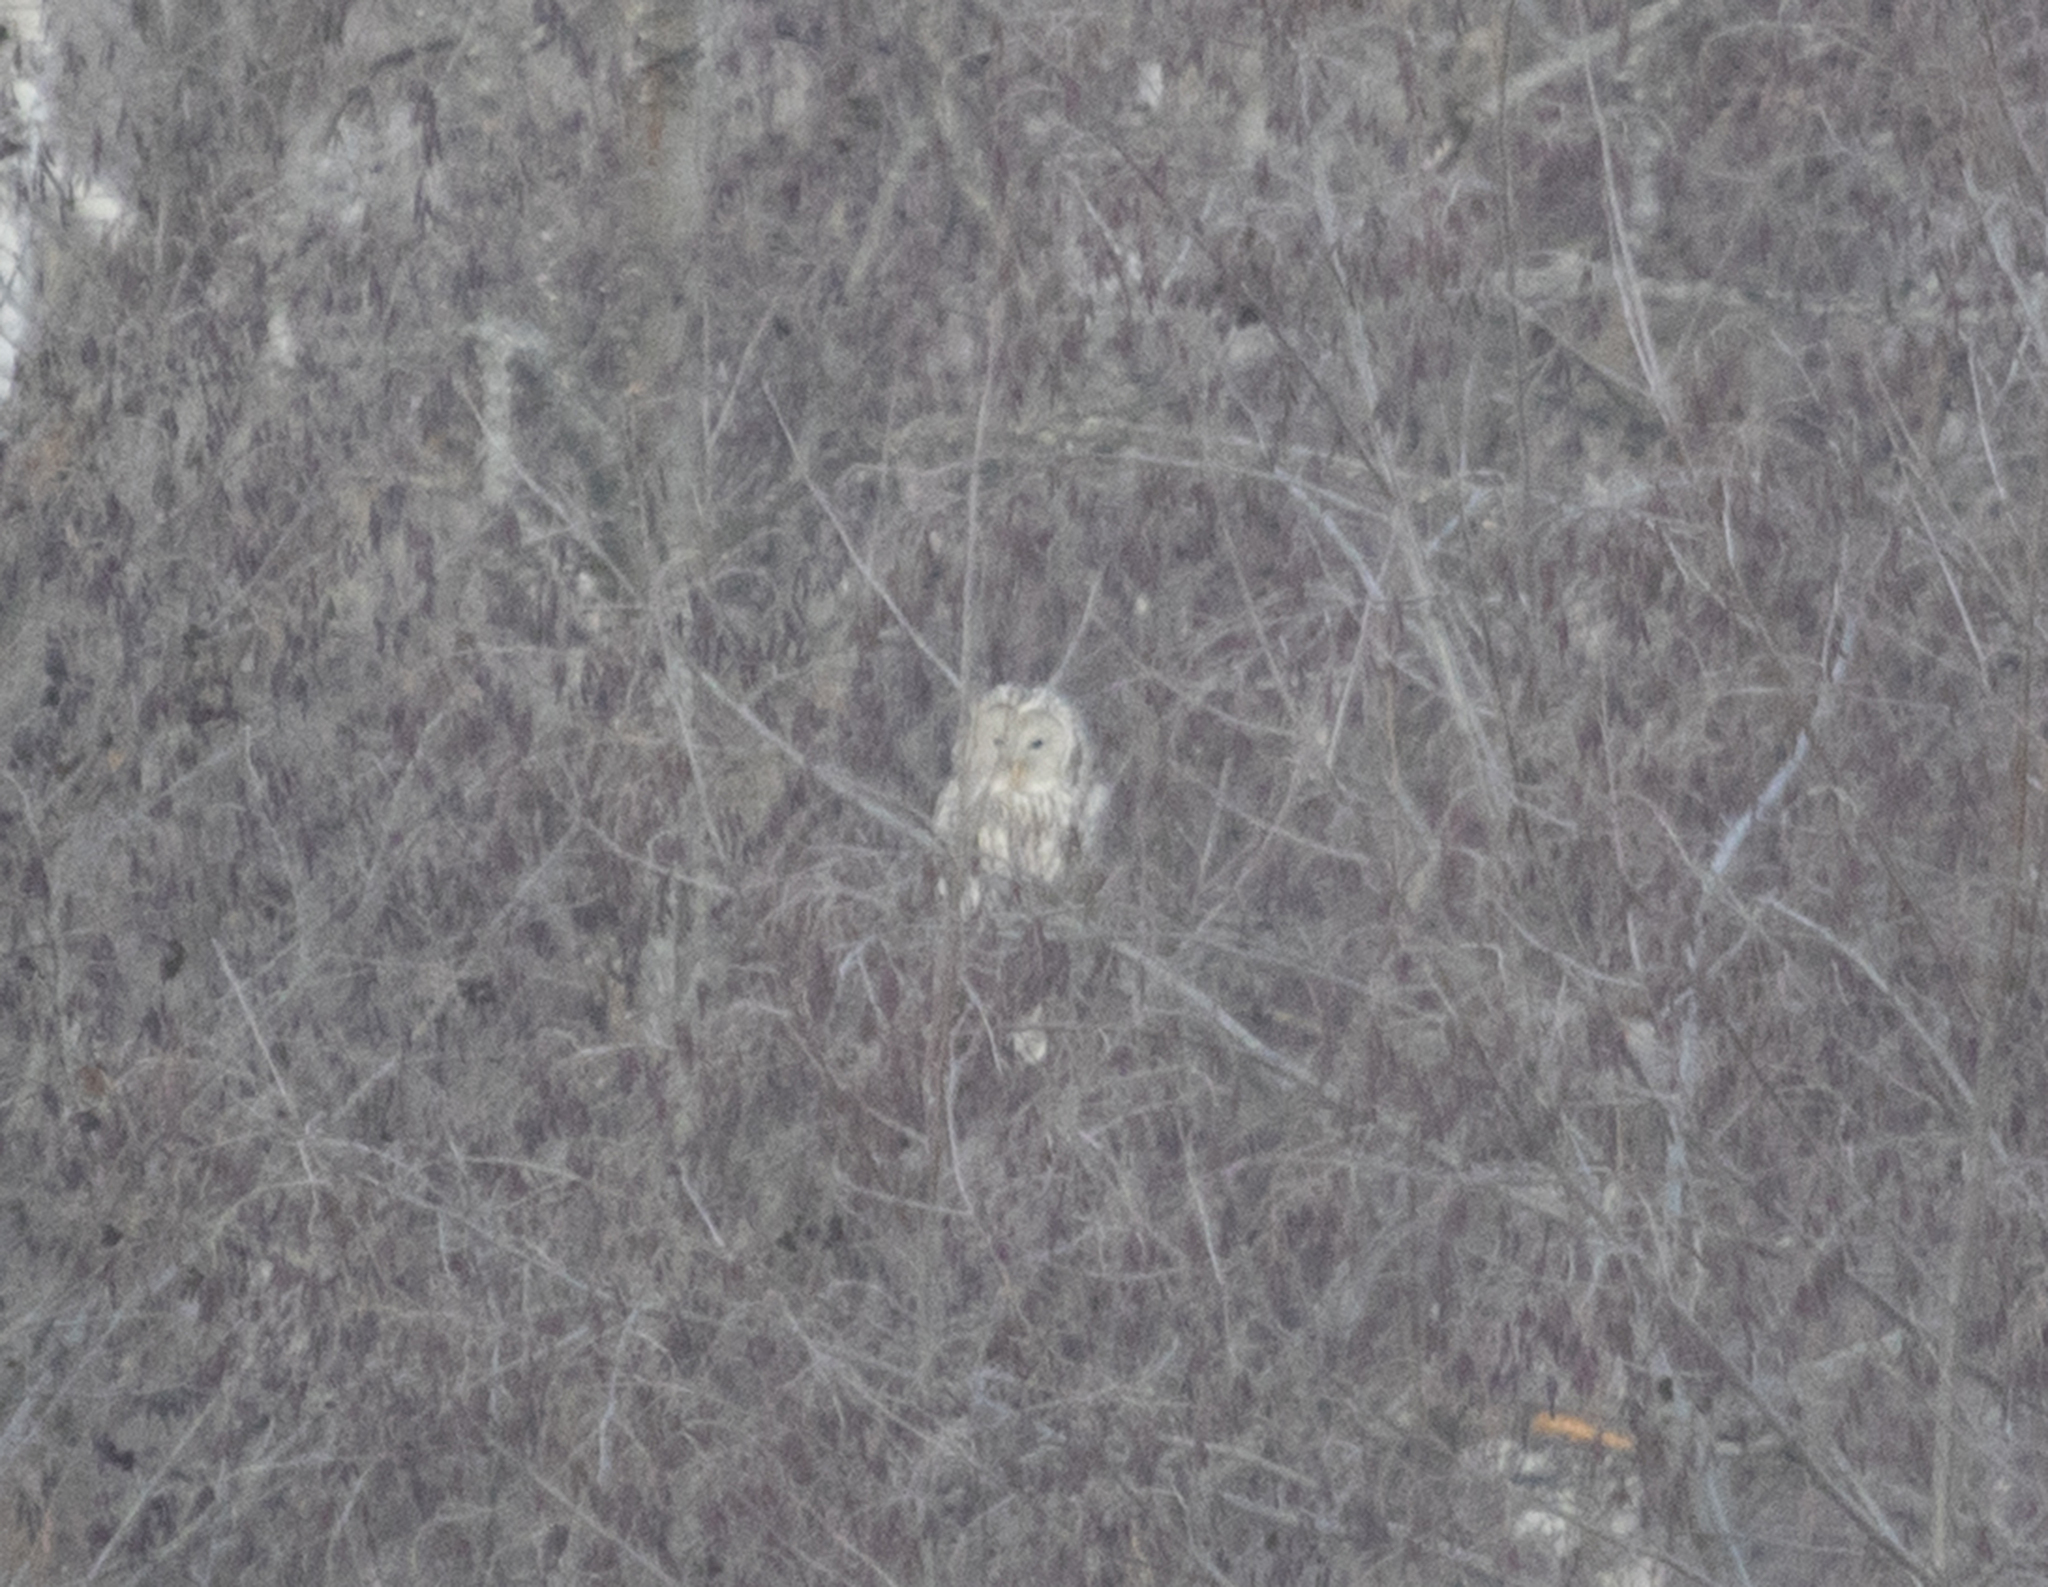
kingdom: Animalia
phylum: Chordata
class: Aves
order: Strigiformes
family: Strigidae
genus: Strix
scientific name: Strix uralensis
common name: Ural owl
